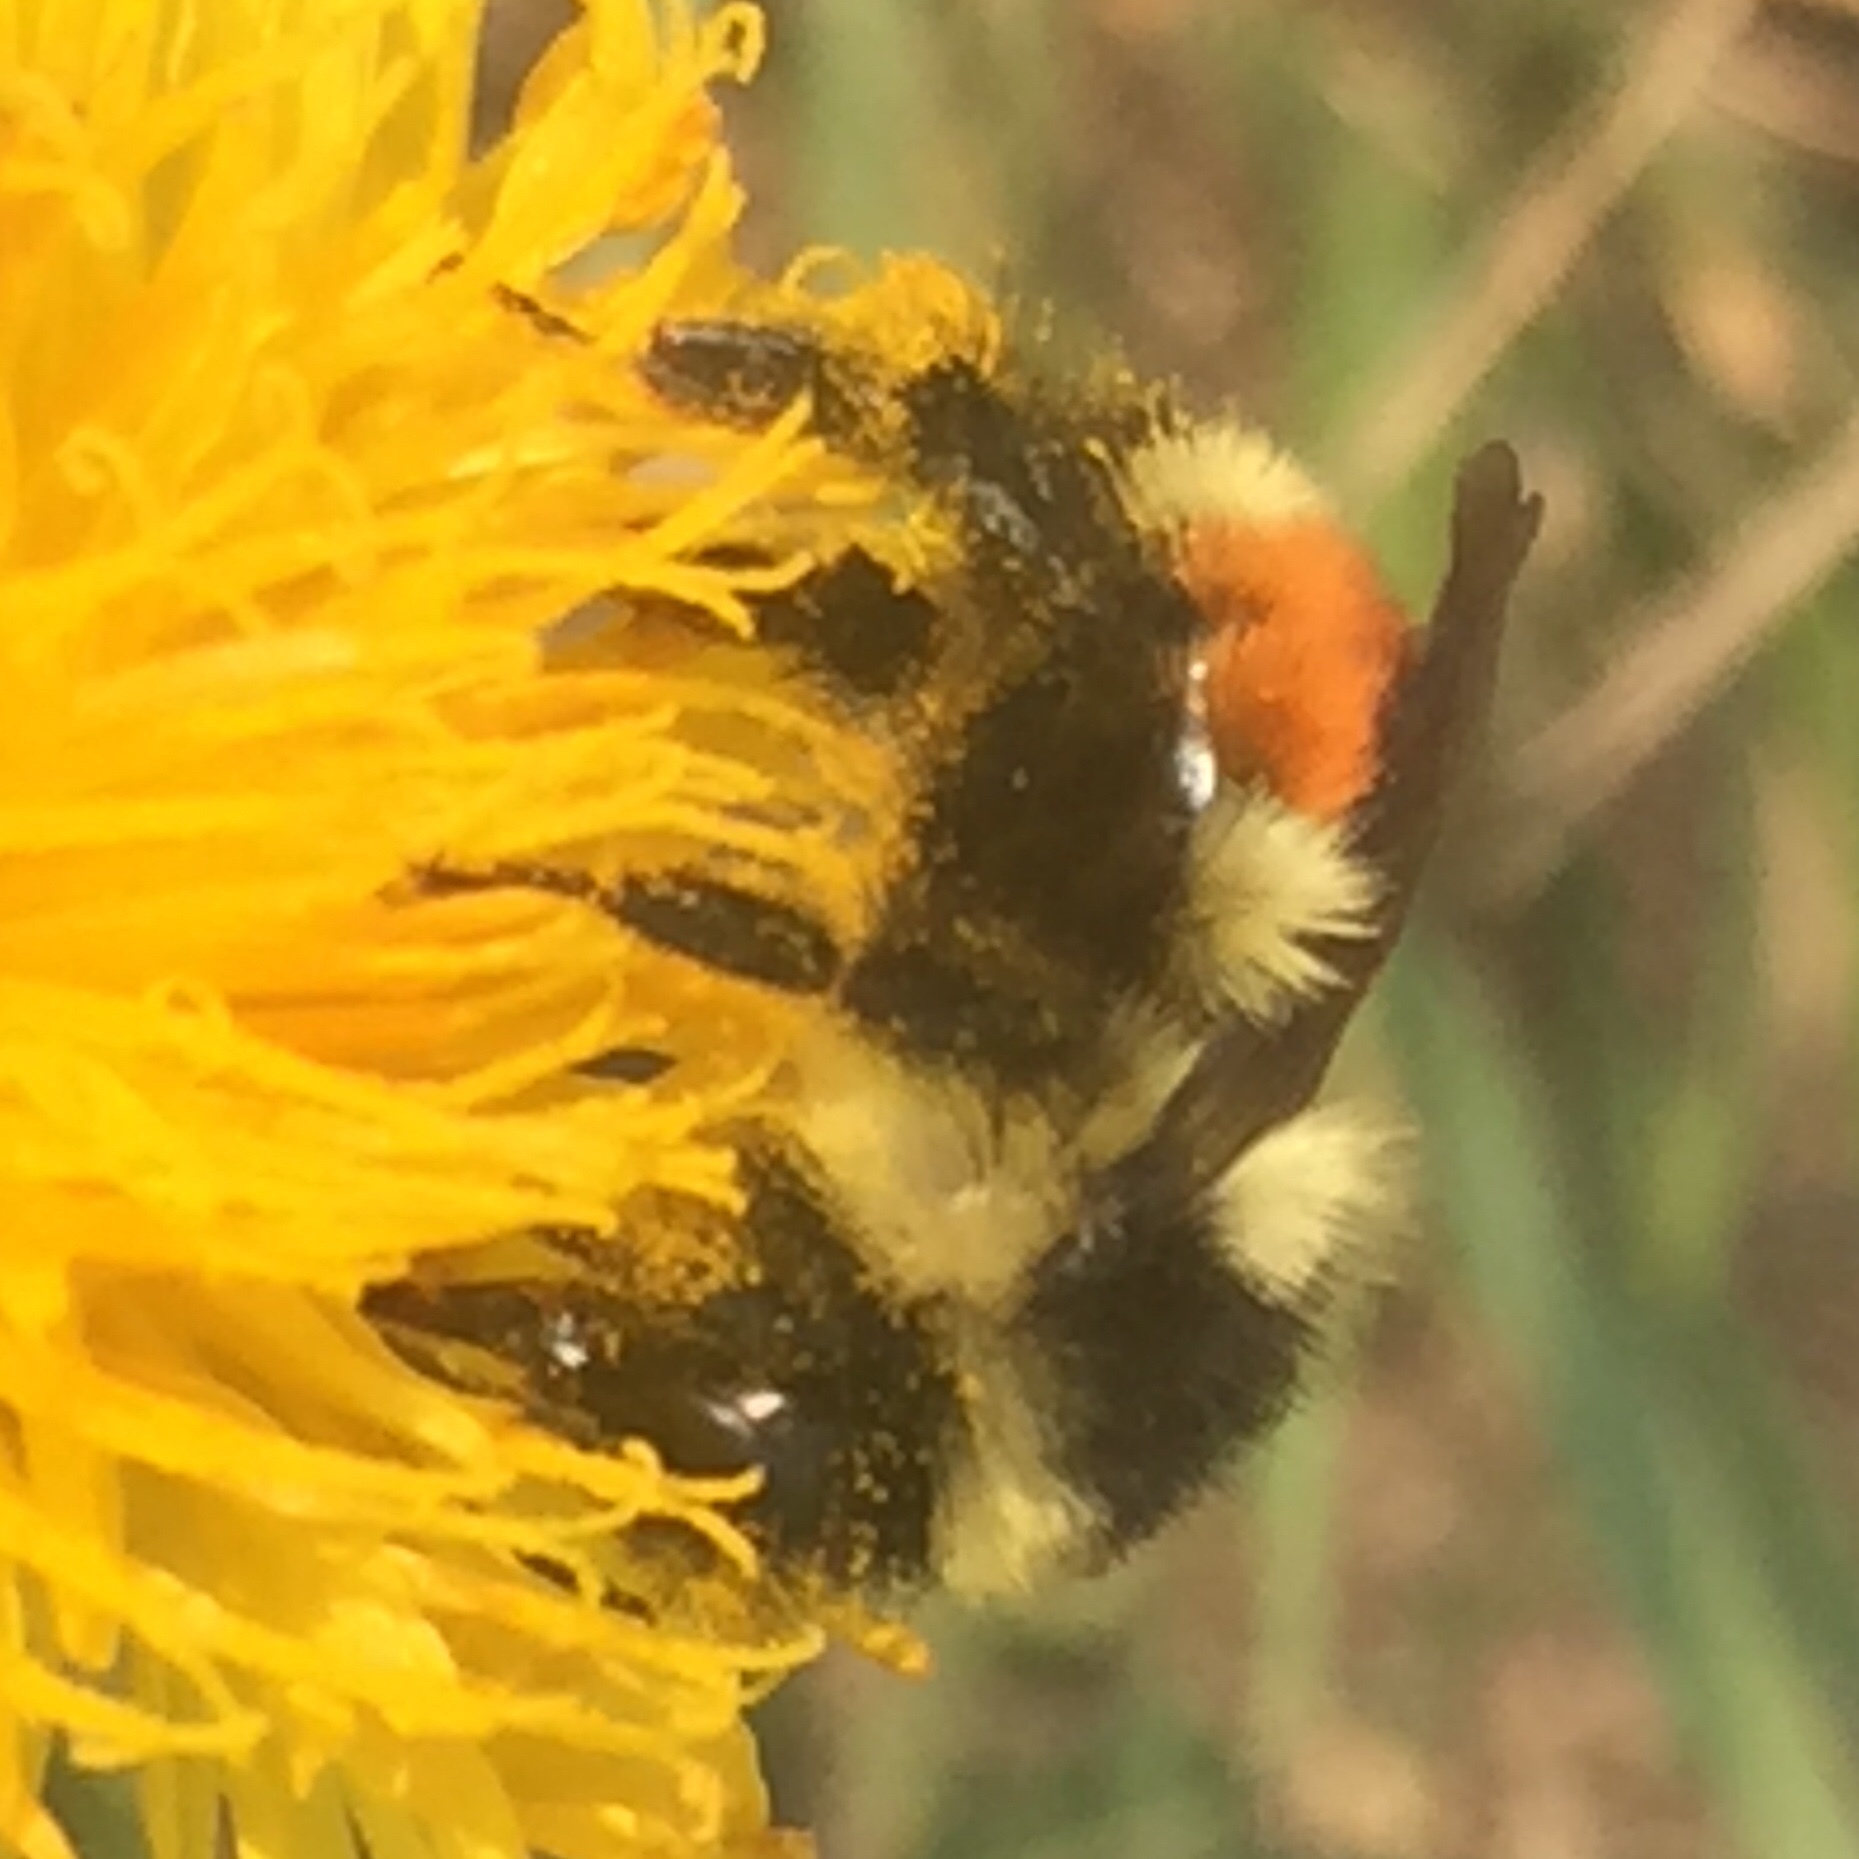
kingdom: Animalia
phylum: Arthropoda
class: Insecta
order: Hymenoptera
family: Apidae
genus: Bombus
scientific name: Bombus ternarius
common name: Tri-colored bumble bee
